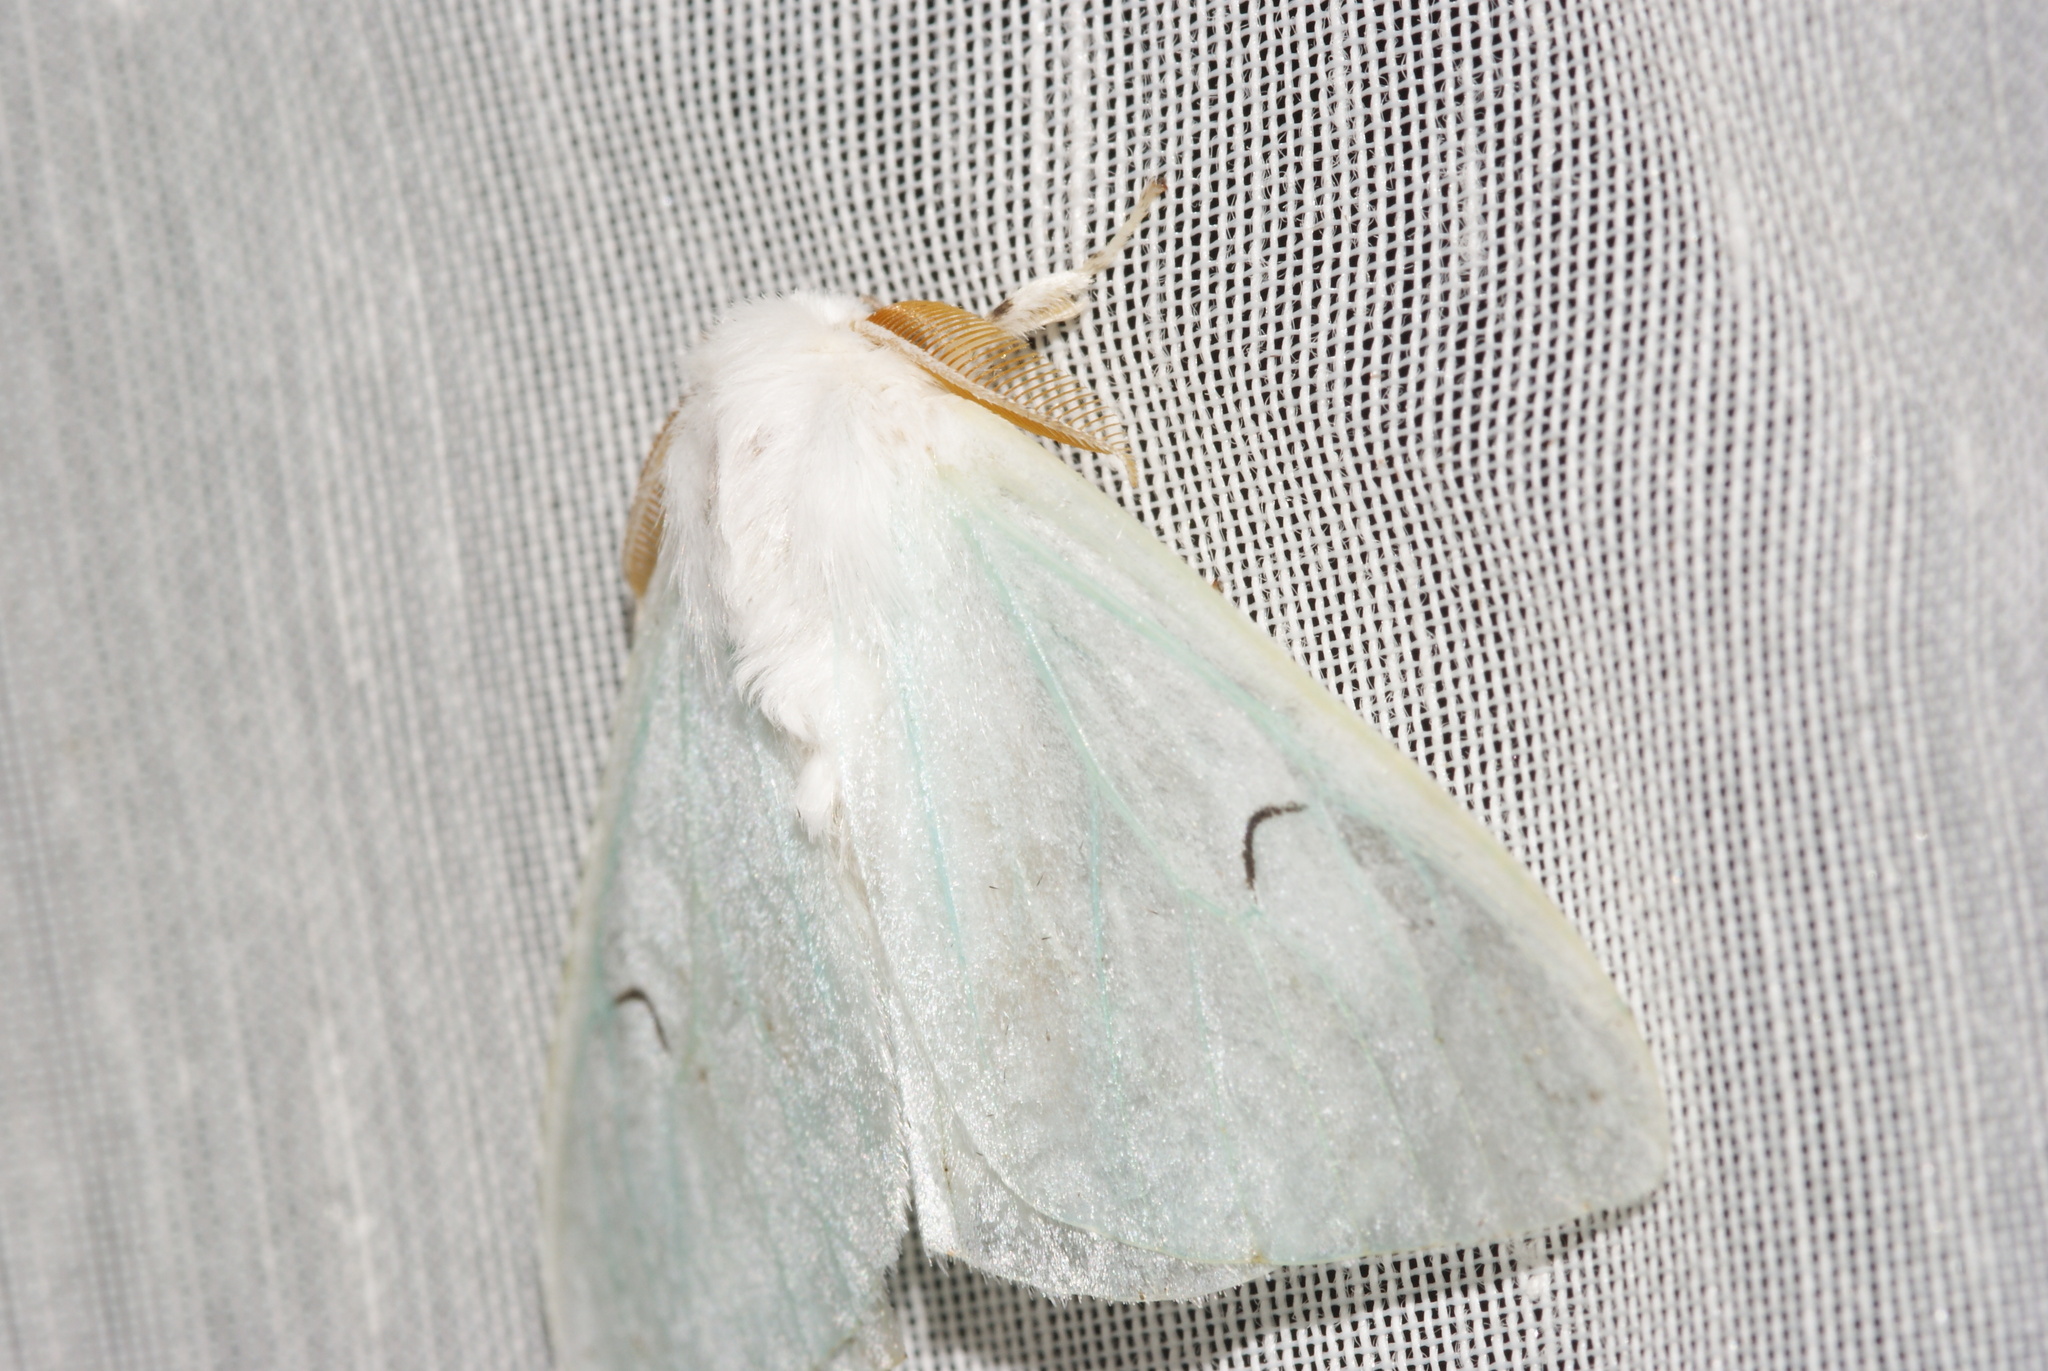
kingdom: Animalia
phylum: Arthropoda
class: Insecta
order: Lepidoptera
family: Erebidae
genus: Arctornis
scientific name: Arctornis l-nigrum
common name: Black v moth
